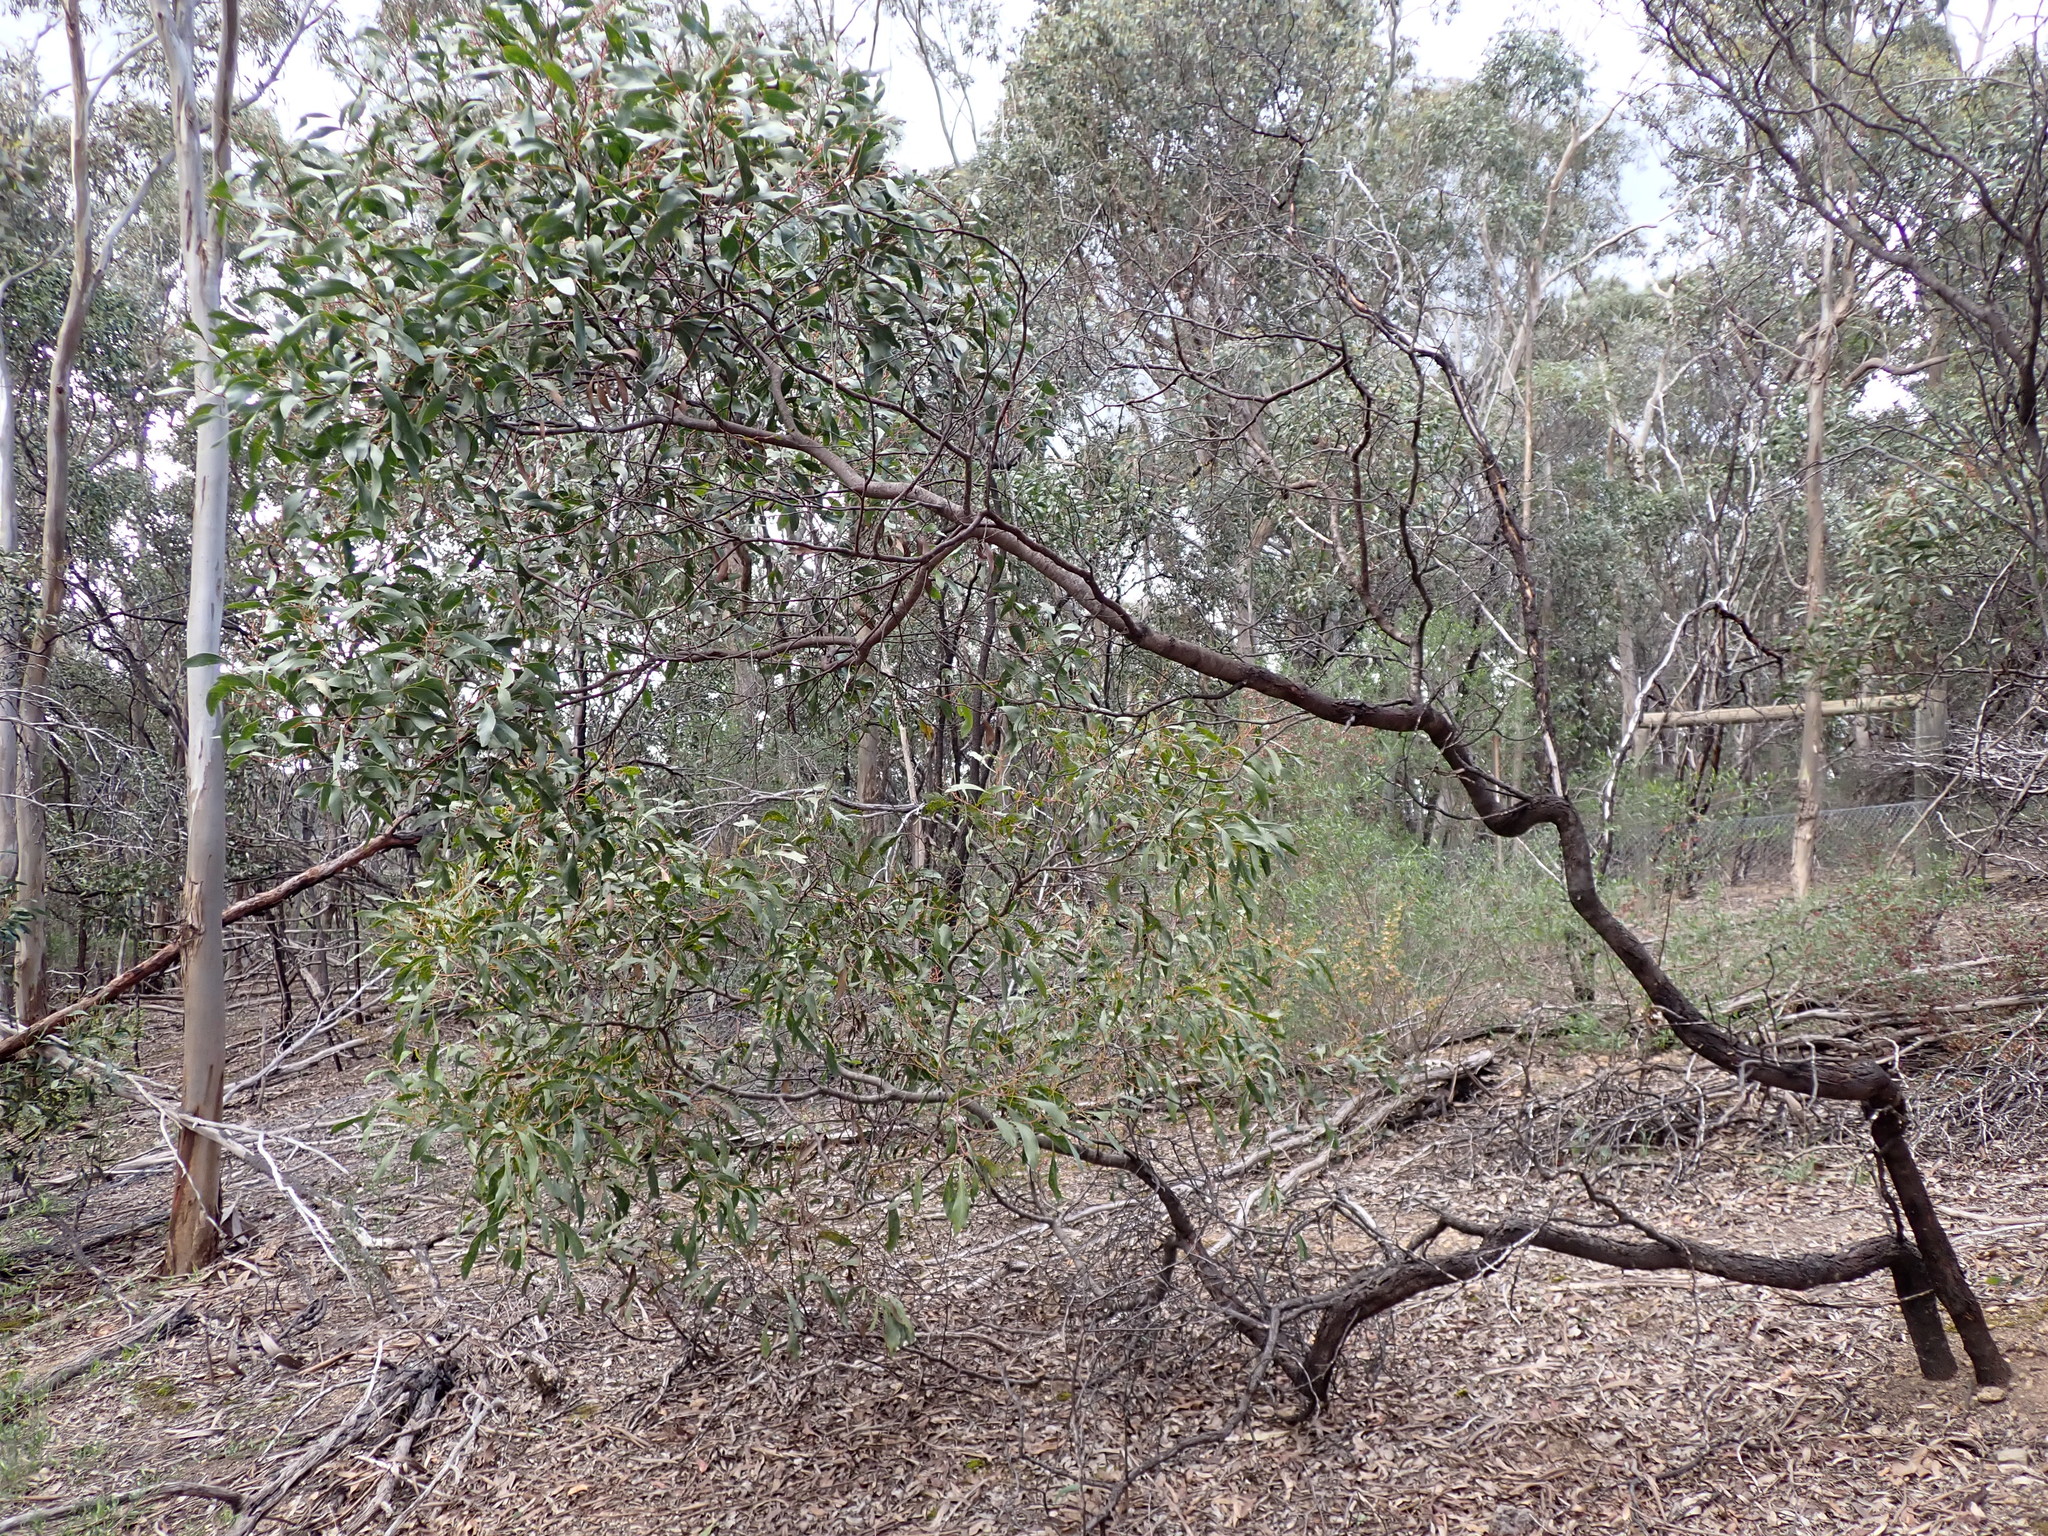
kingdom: Plantae
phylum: Tracheophyta
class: Magnoliopsida
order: Fabales
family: Fabaceae
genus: Acacia
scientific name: Acacia pycnantha
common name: Golden wattle
